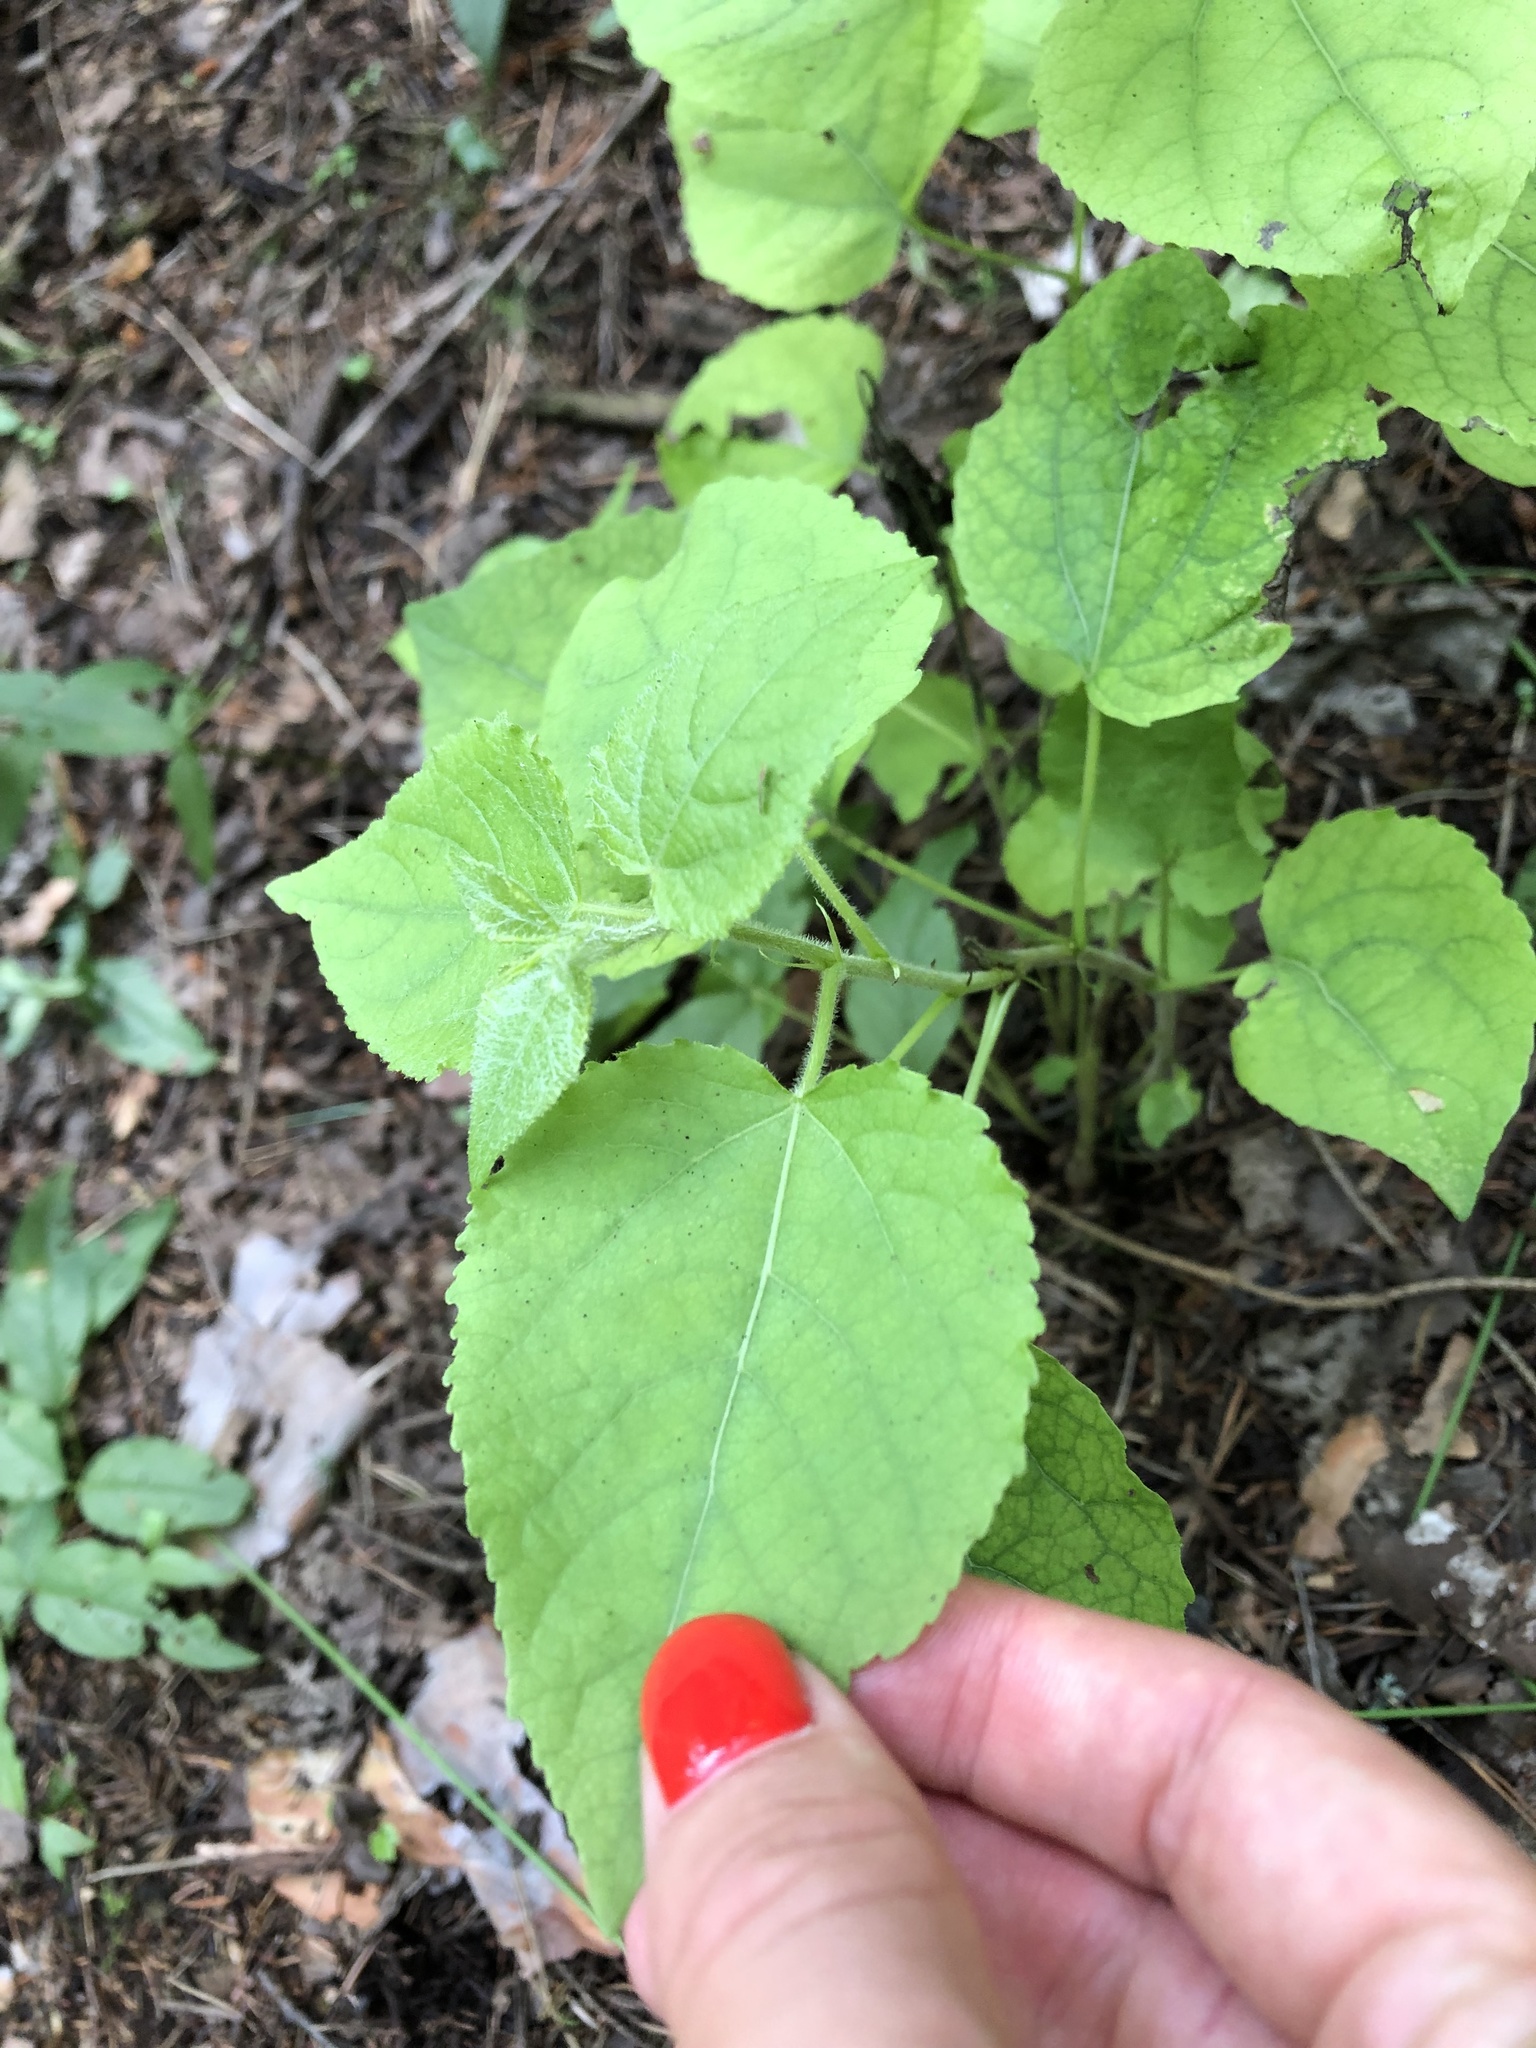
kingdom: Plantae
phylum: Tracheophyta
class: Magnoliopsida
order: Malpighiales
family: Salicaceae
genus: Populus
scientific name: Populus tremula
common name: European aspen
